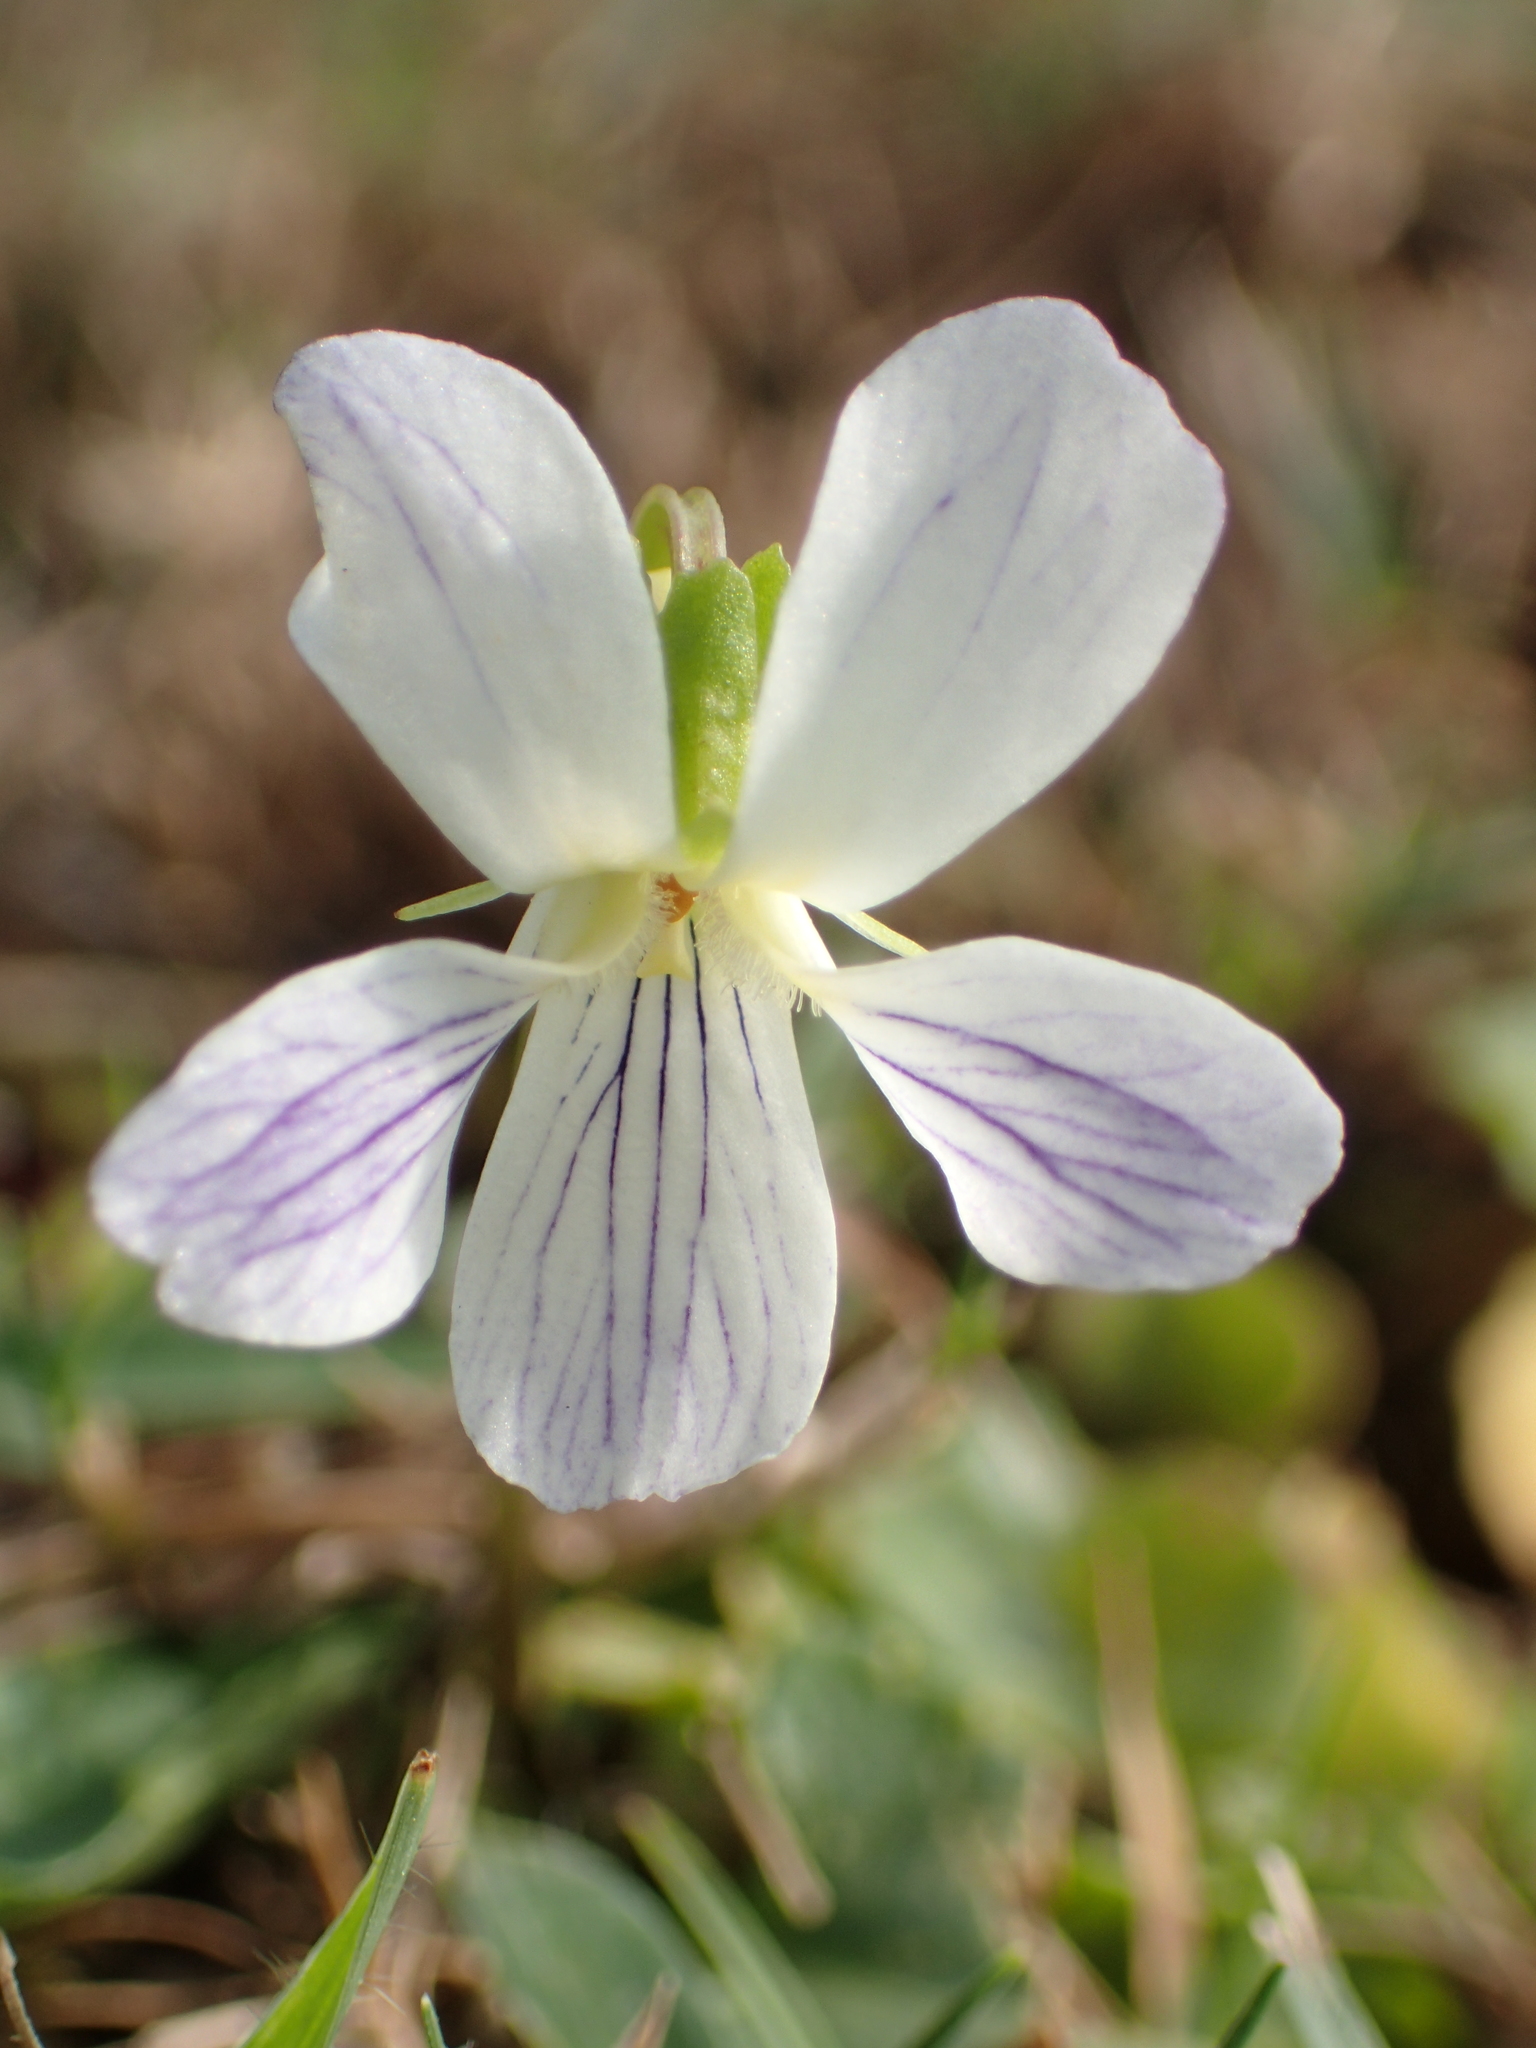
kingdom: Plantae
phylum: Tracheophyta
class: Magnoliopsida
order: Malpighiales
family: Violaceae
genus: Viola
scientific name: Viola betonicifolia
